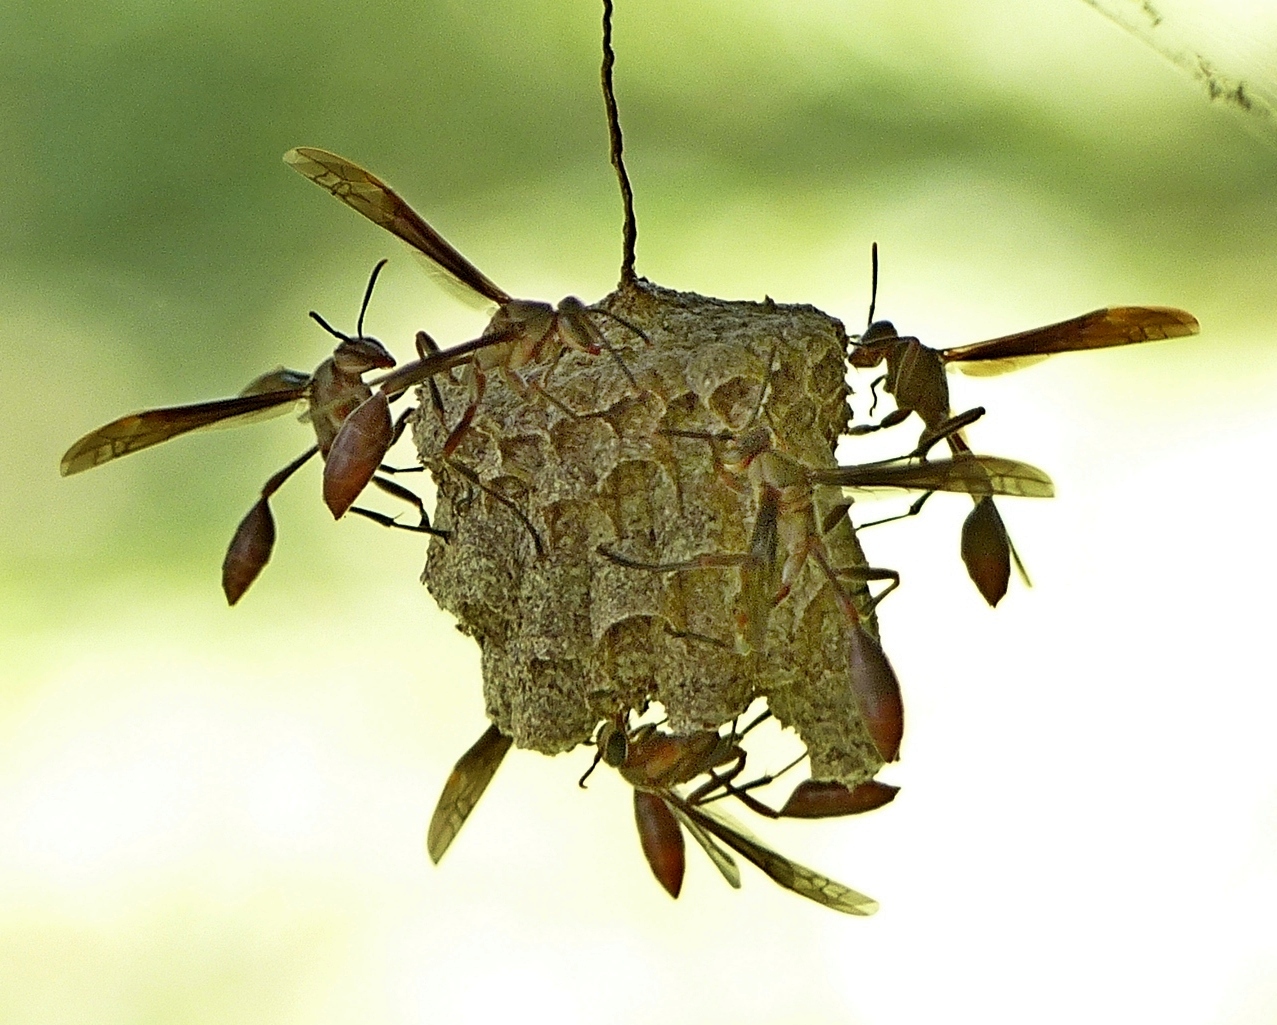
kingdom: Animalia
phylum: Arthropoda
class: Insecta
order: Hymenoptera
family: Vespidae
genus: Mischocyttarus
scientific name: Mischocyttarus rotundicollis
